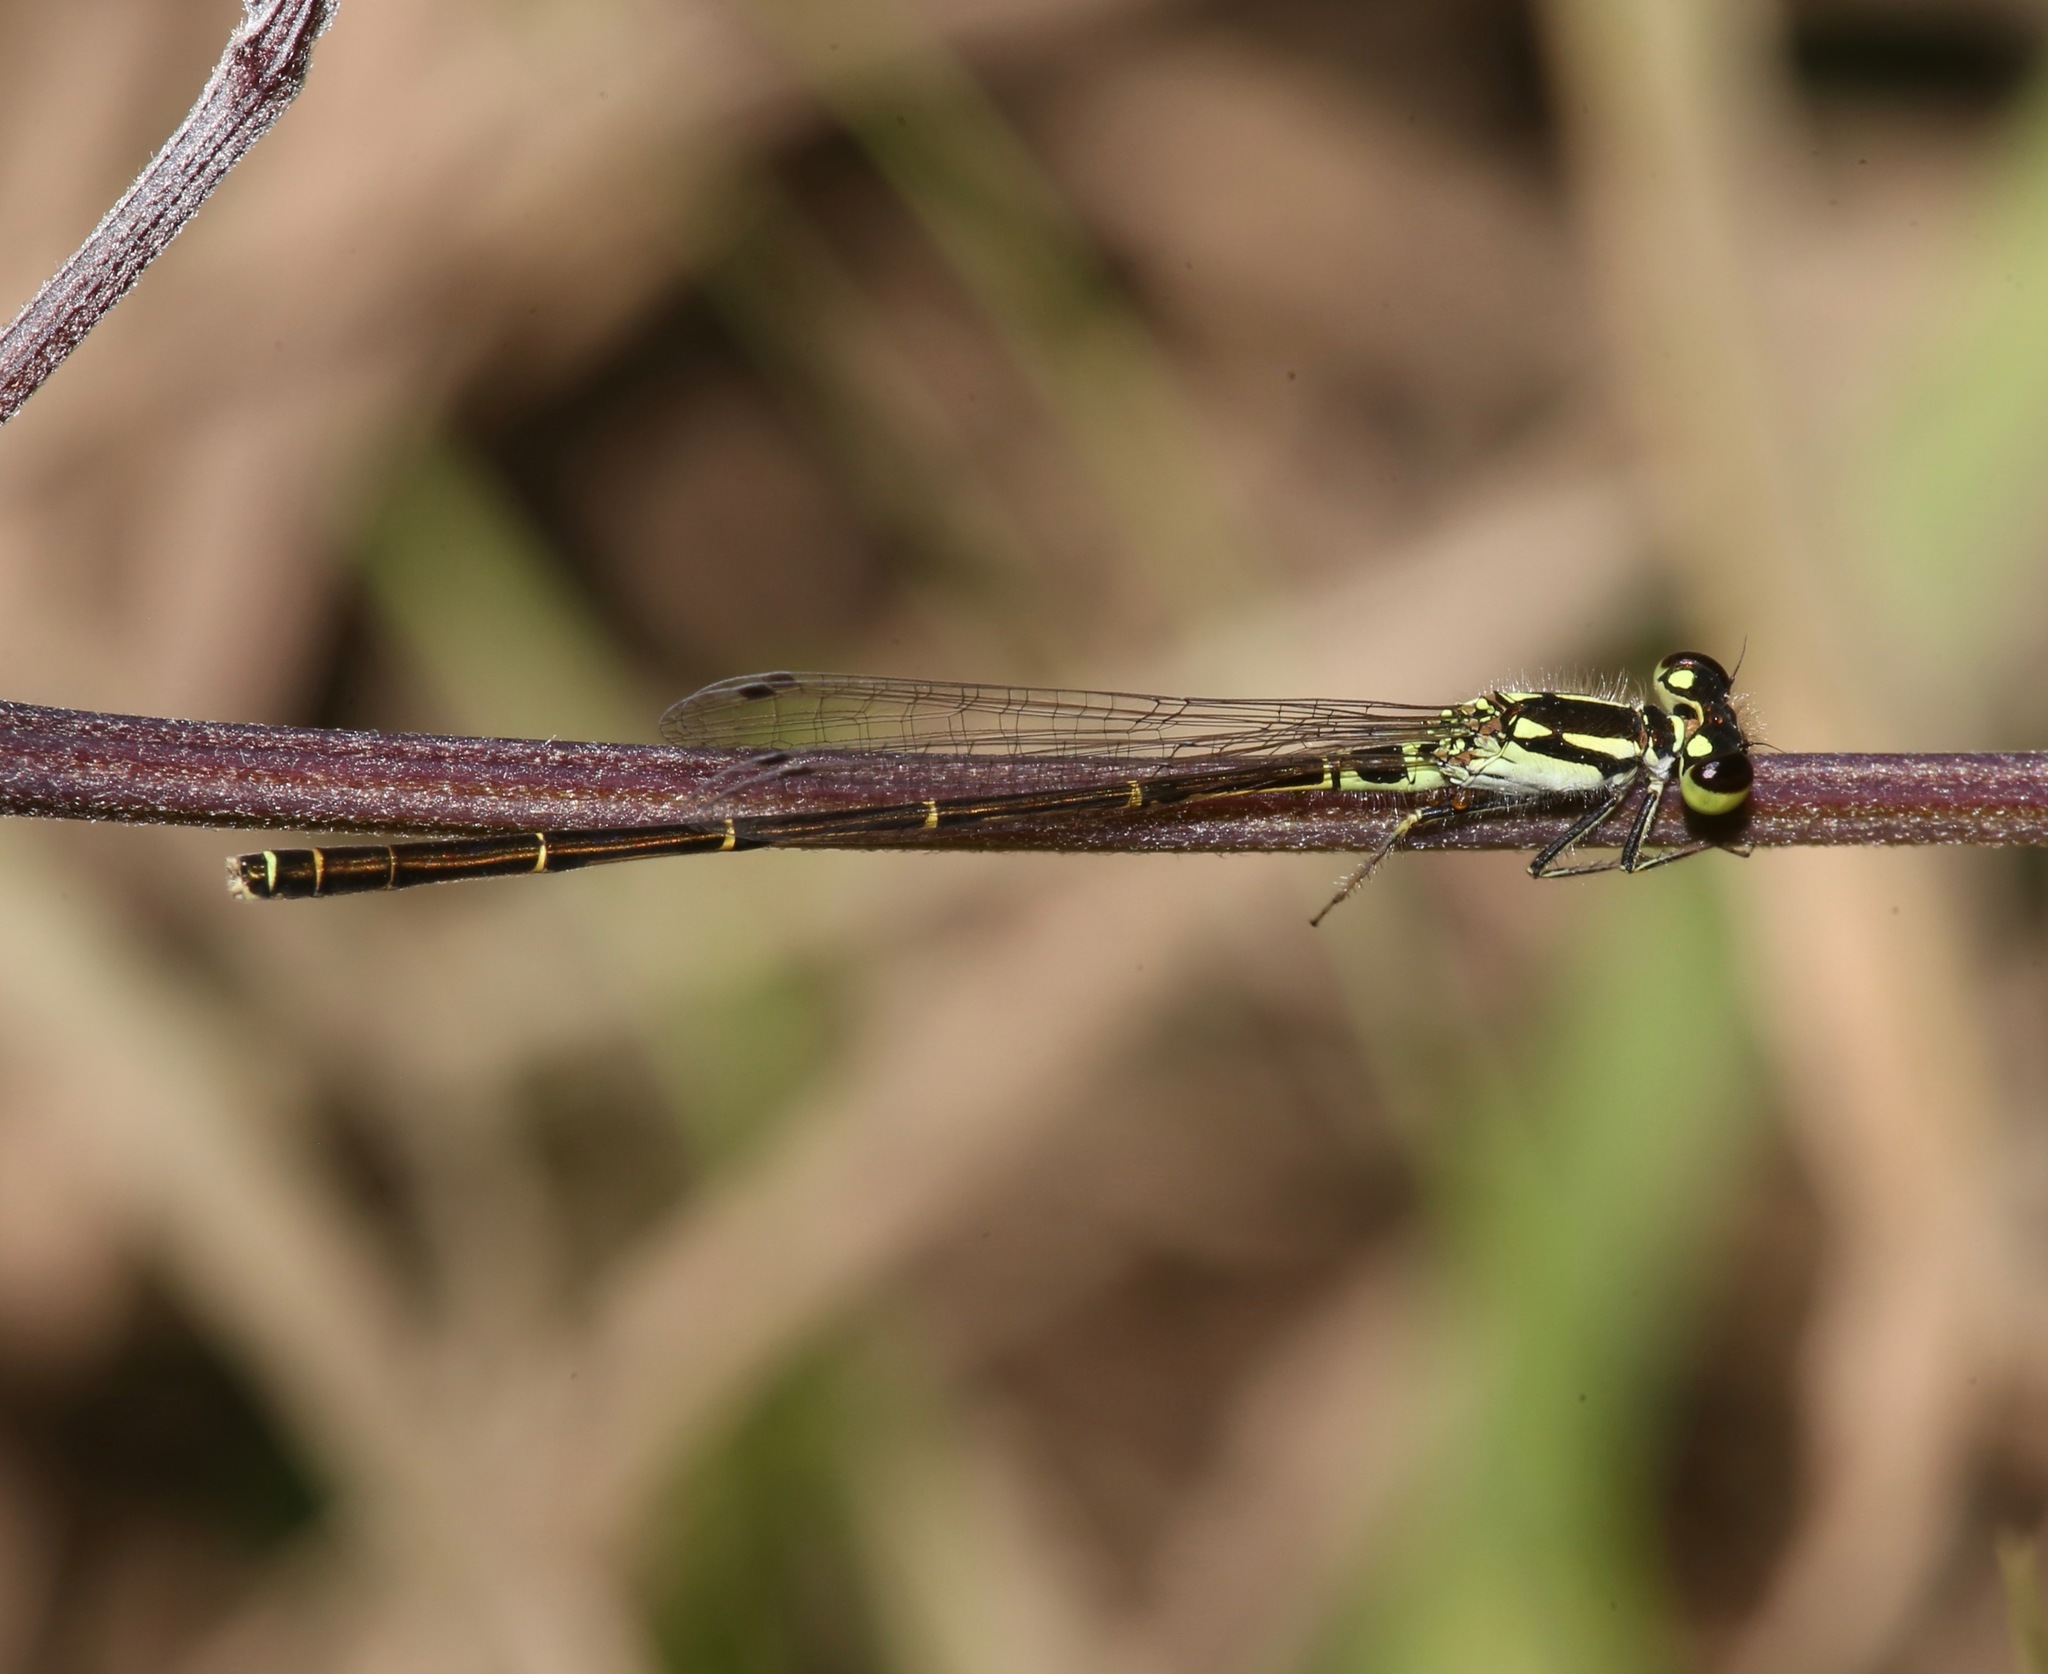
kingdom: Animalia
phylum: Arthropoda
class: Insecta
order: Odonata
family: Coenagrionidae
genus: Ischnura
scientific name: Ischnura posita
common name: Fragile forktail
